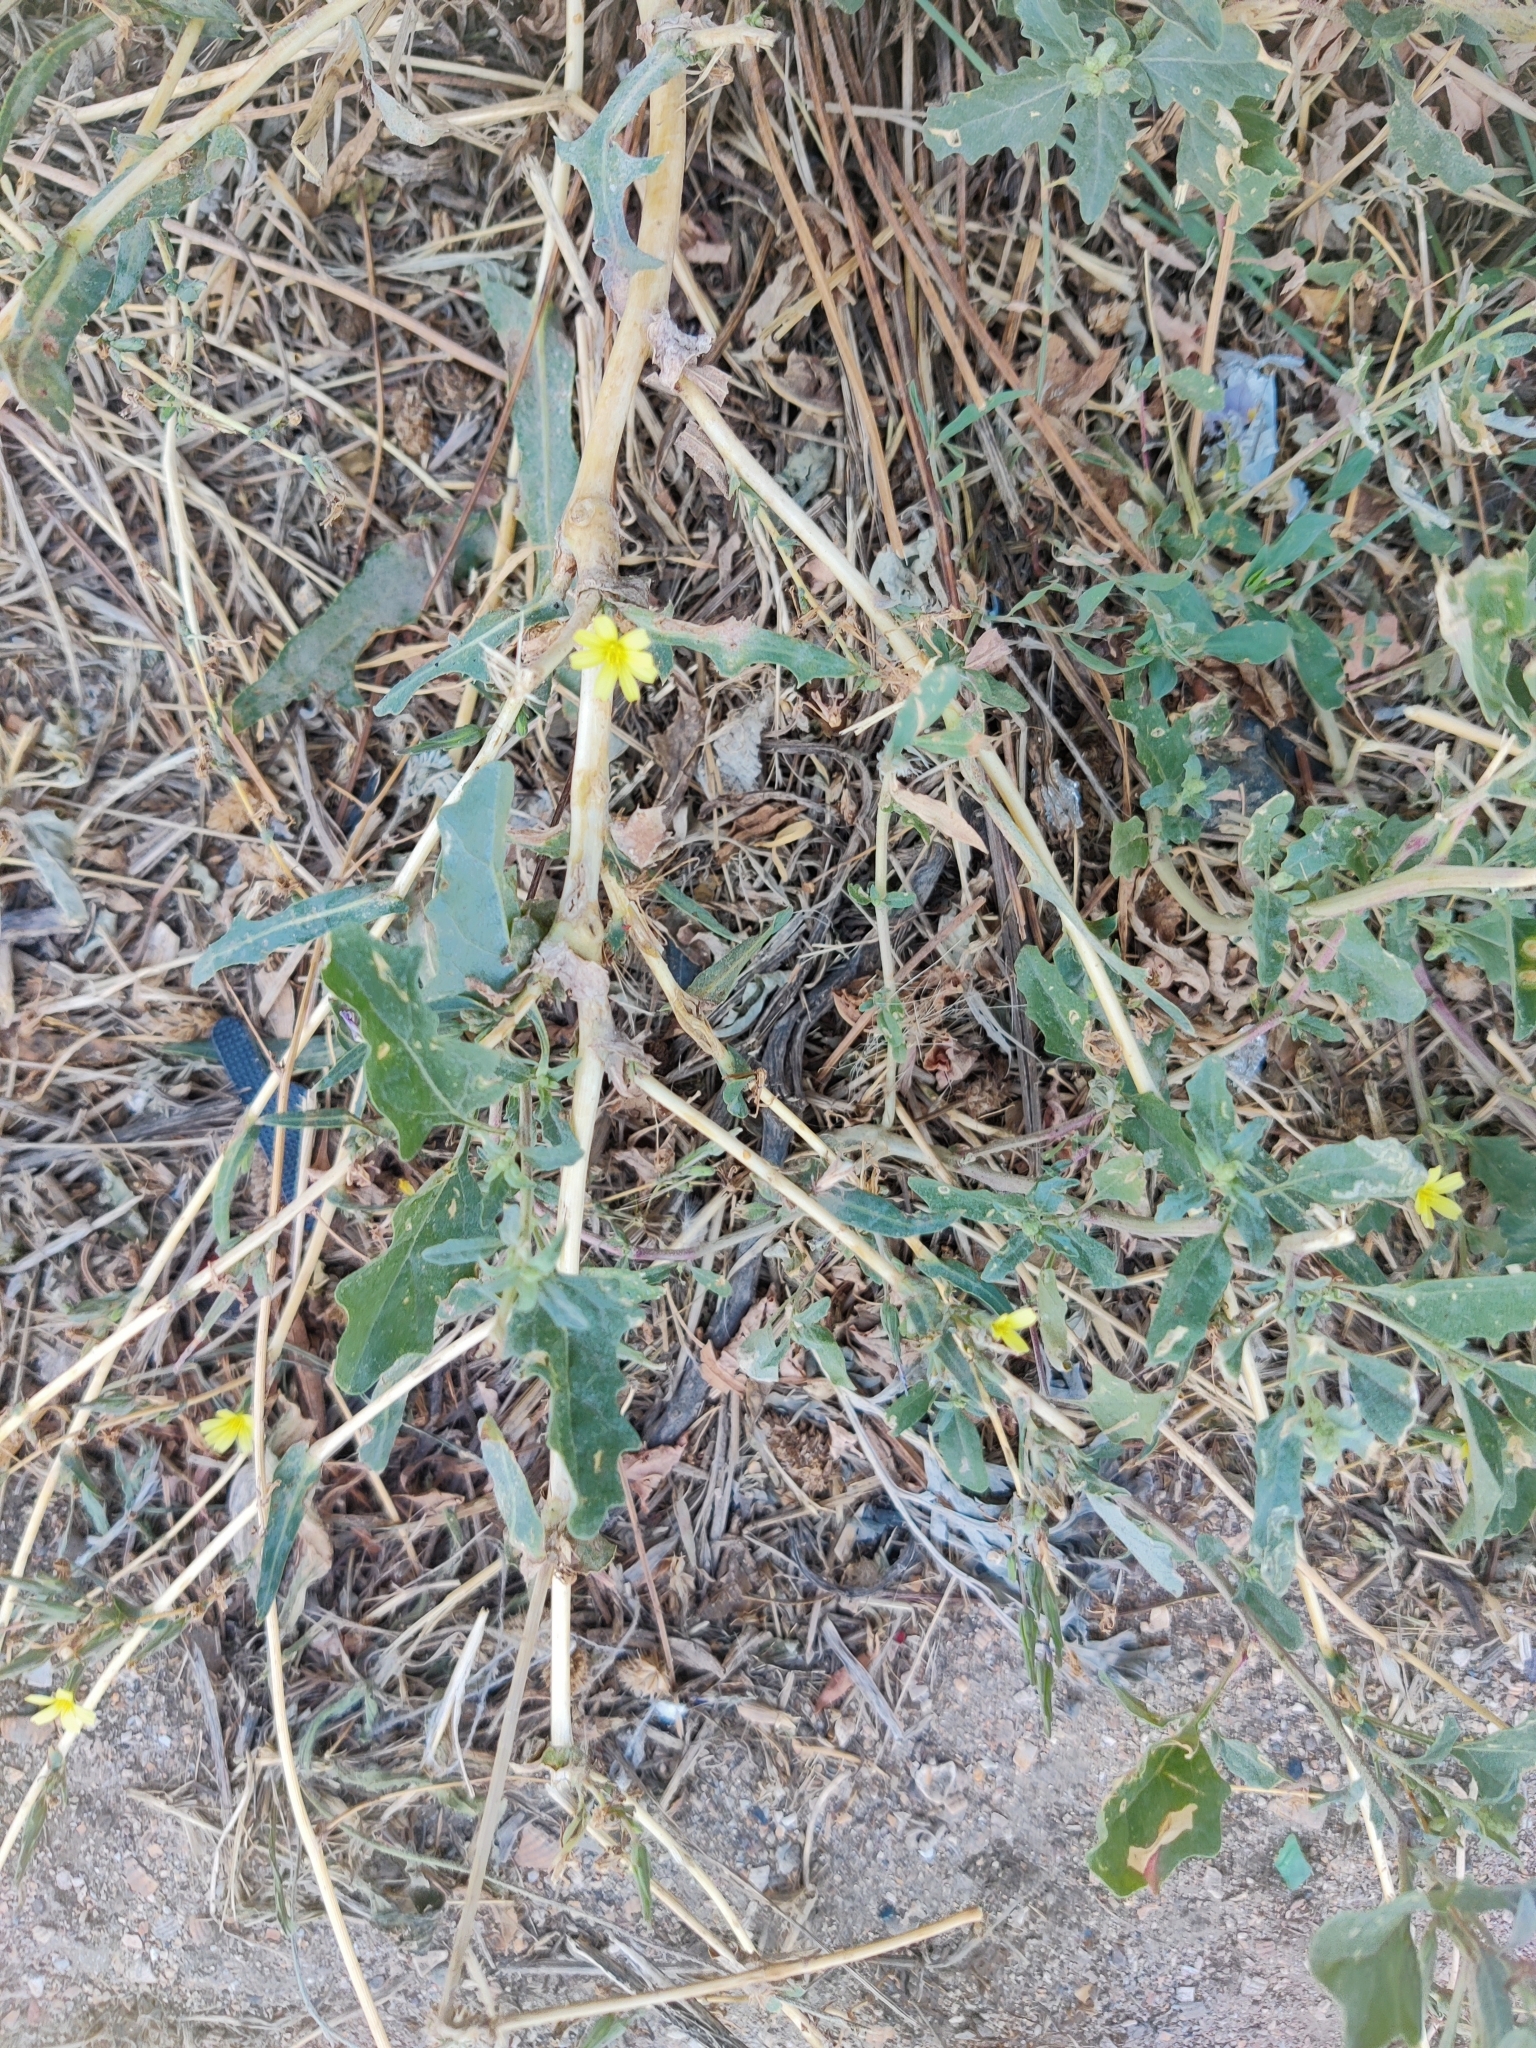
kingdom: Plantae
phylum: Tracheophyta
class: Magnoliopsida
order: Asterales
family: Asteraceae
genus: Lactuca
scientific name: Lactuca serriola
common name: Prickly lettuce
